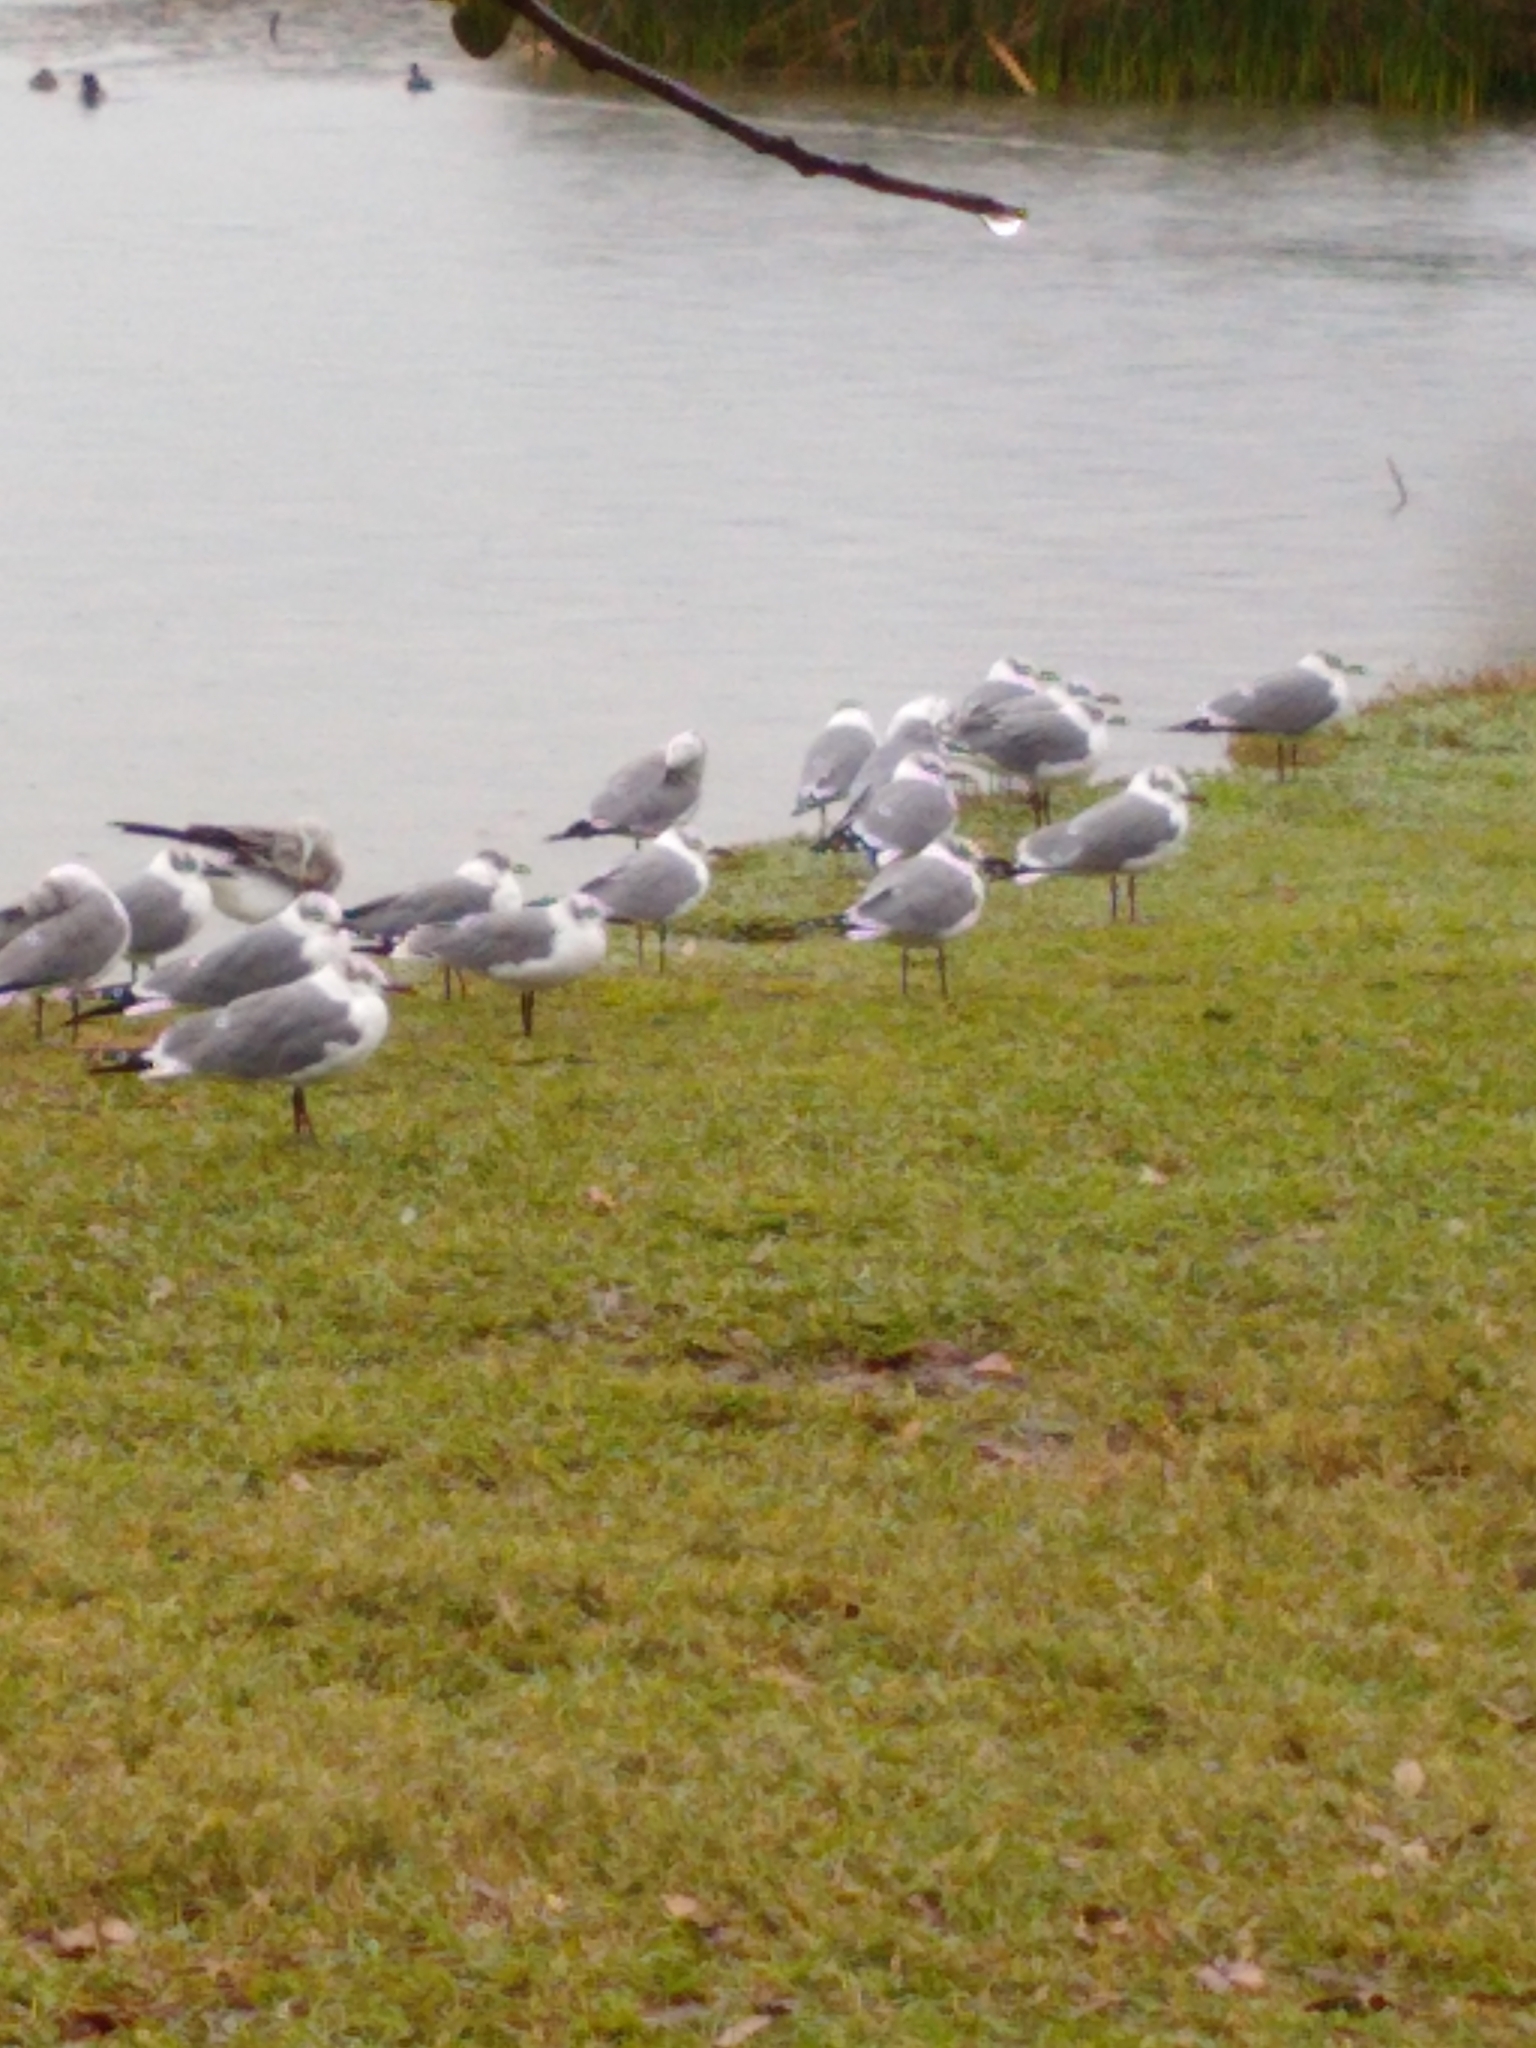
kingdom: Animalia
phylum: Chordata
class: Aves
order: Charadriiformes
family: Laridae
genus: Leucophaeus
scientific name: Leucophaeus atricilla
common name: Laughing gull
